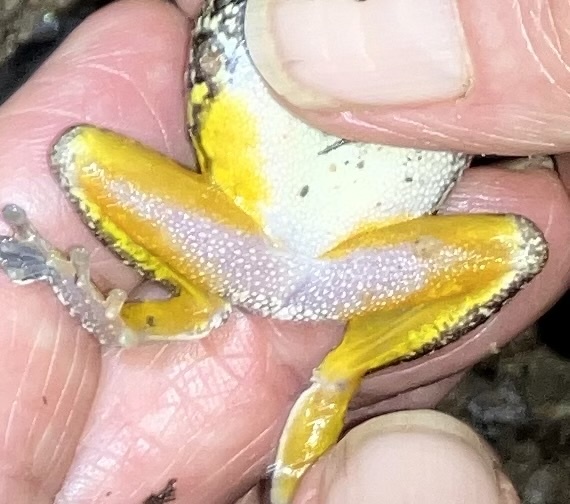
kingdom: Animalia
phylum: Chordata
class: Amphibia
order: Anura
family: Hylidae
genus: Dryophytes
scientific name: Dryophytes chrysoscelis
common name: Cope's gray treefrog
